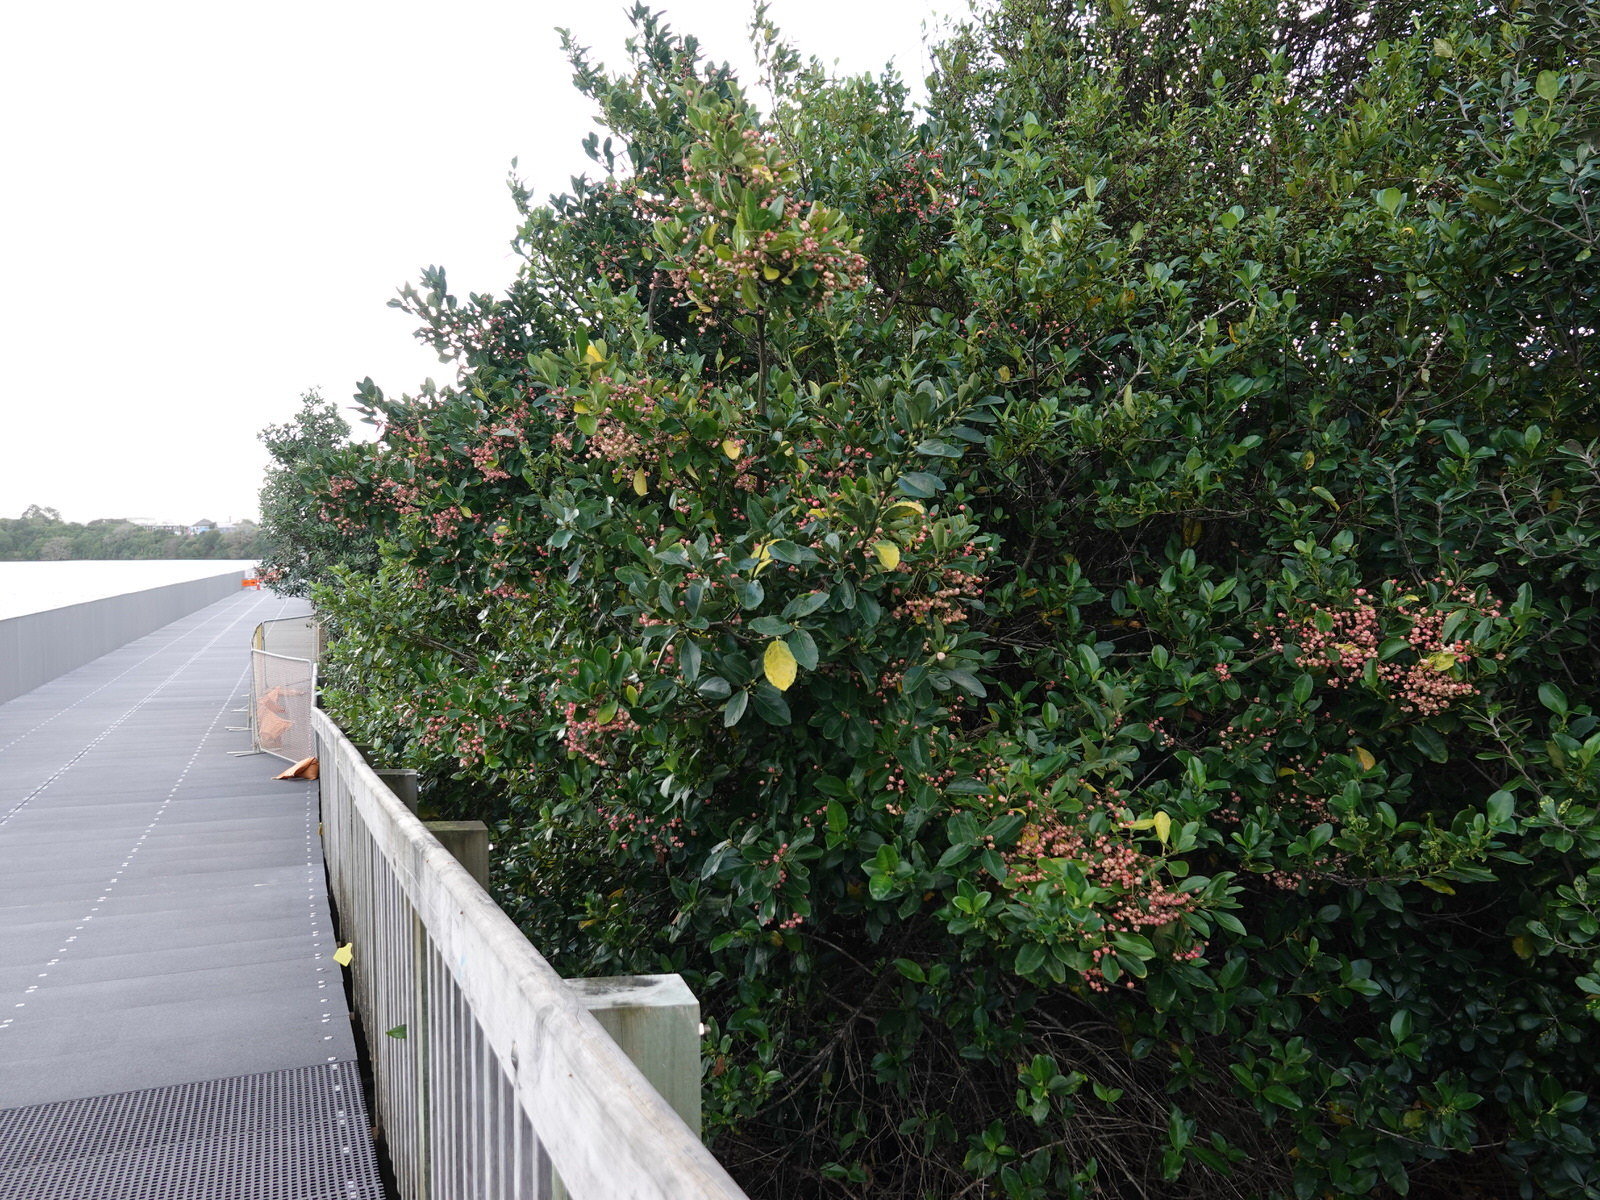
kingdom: Plantae
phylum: Tracheophyta
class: Magnoliopsida
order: Celastrales
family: Celastraceae
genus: Euonymus
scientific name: Euonymus japonicus
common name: Japanese spindletree
